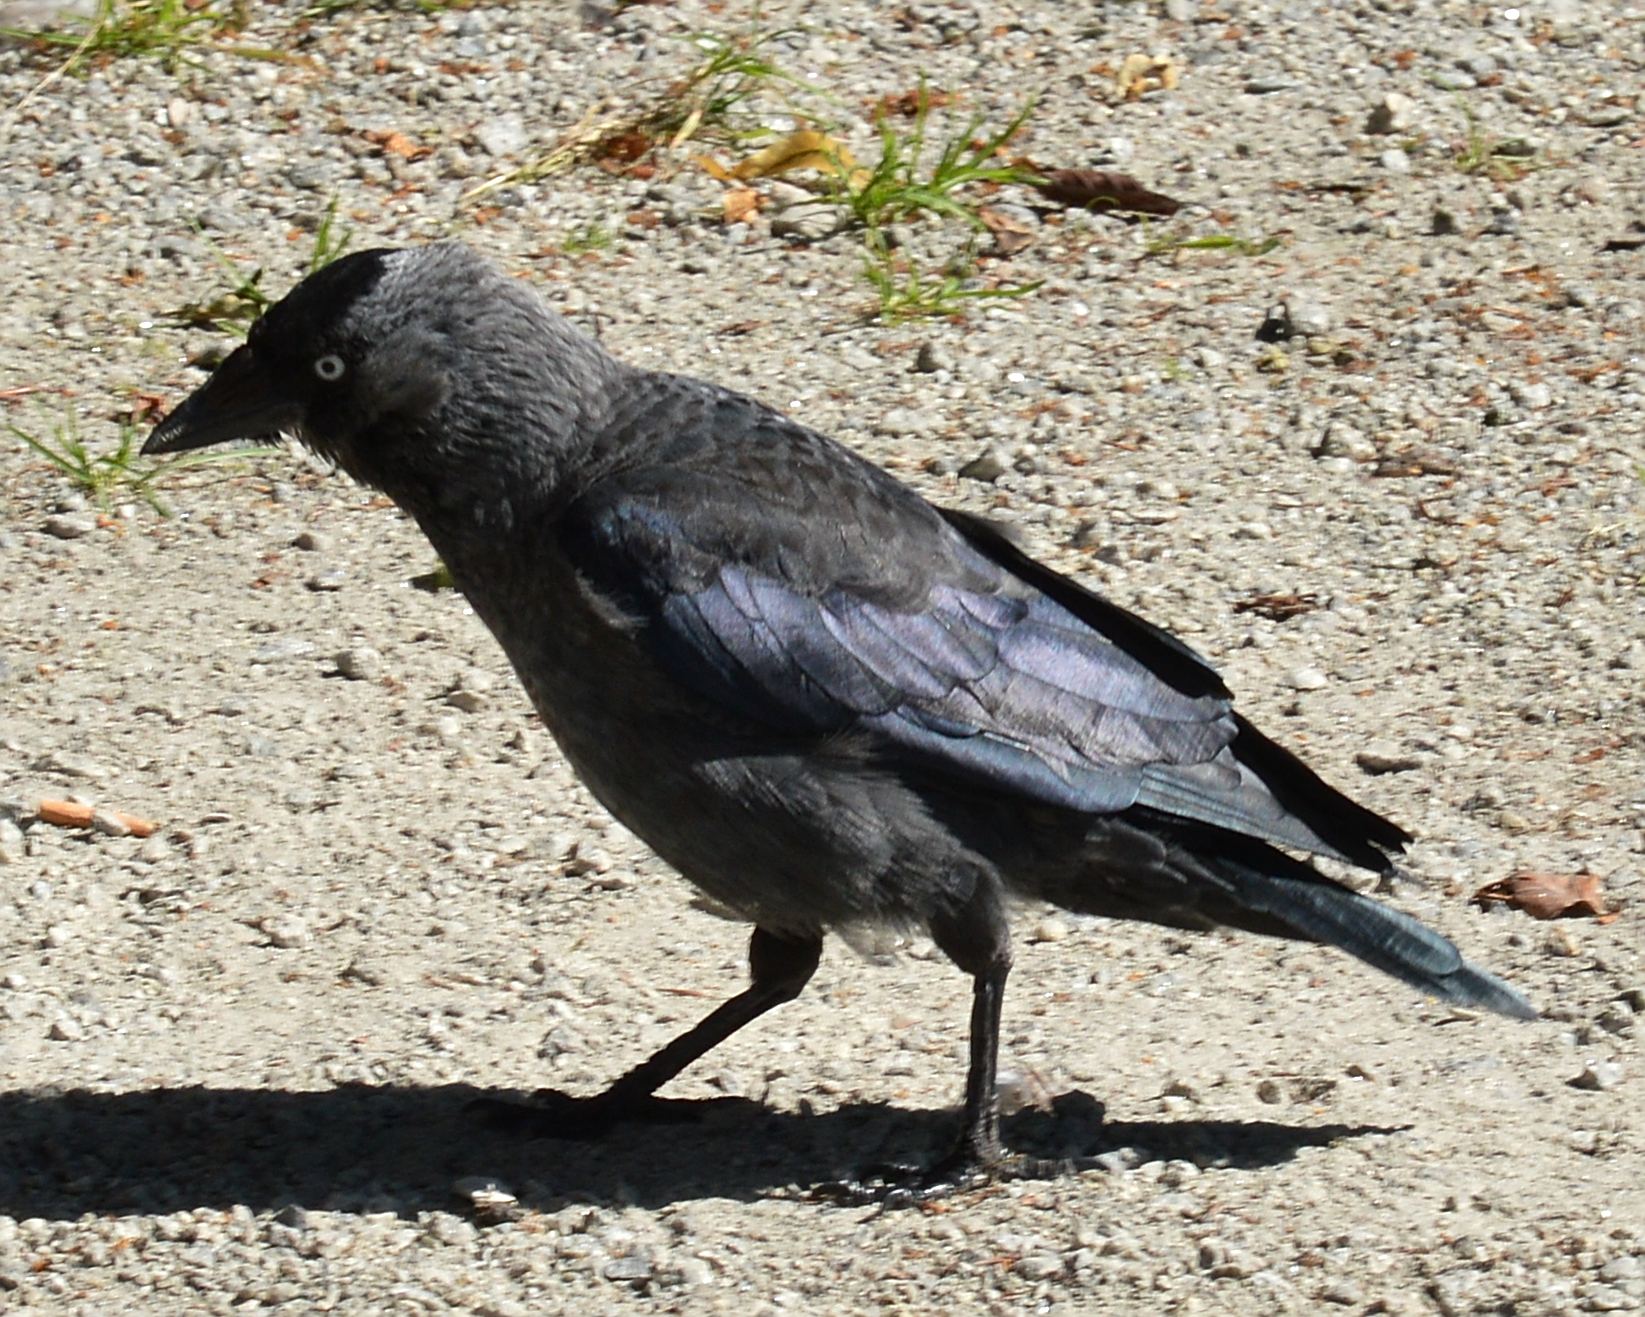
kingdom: Animalia
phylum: Chordata
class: Aves
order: Passeriformes
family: Corvidae
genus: Coloeus
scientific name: Coloeus monedula
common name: Western jackdaw
